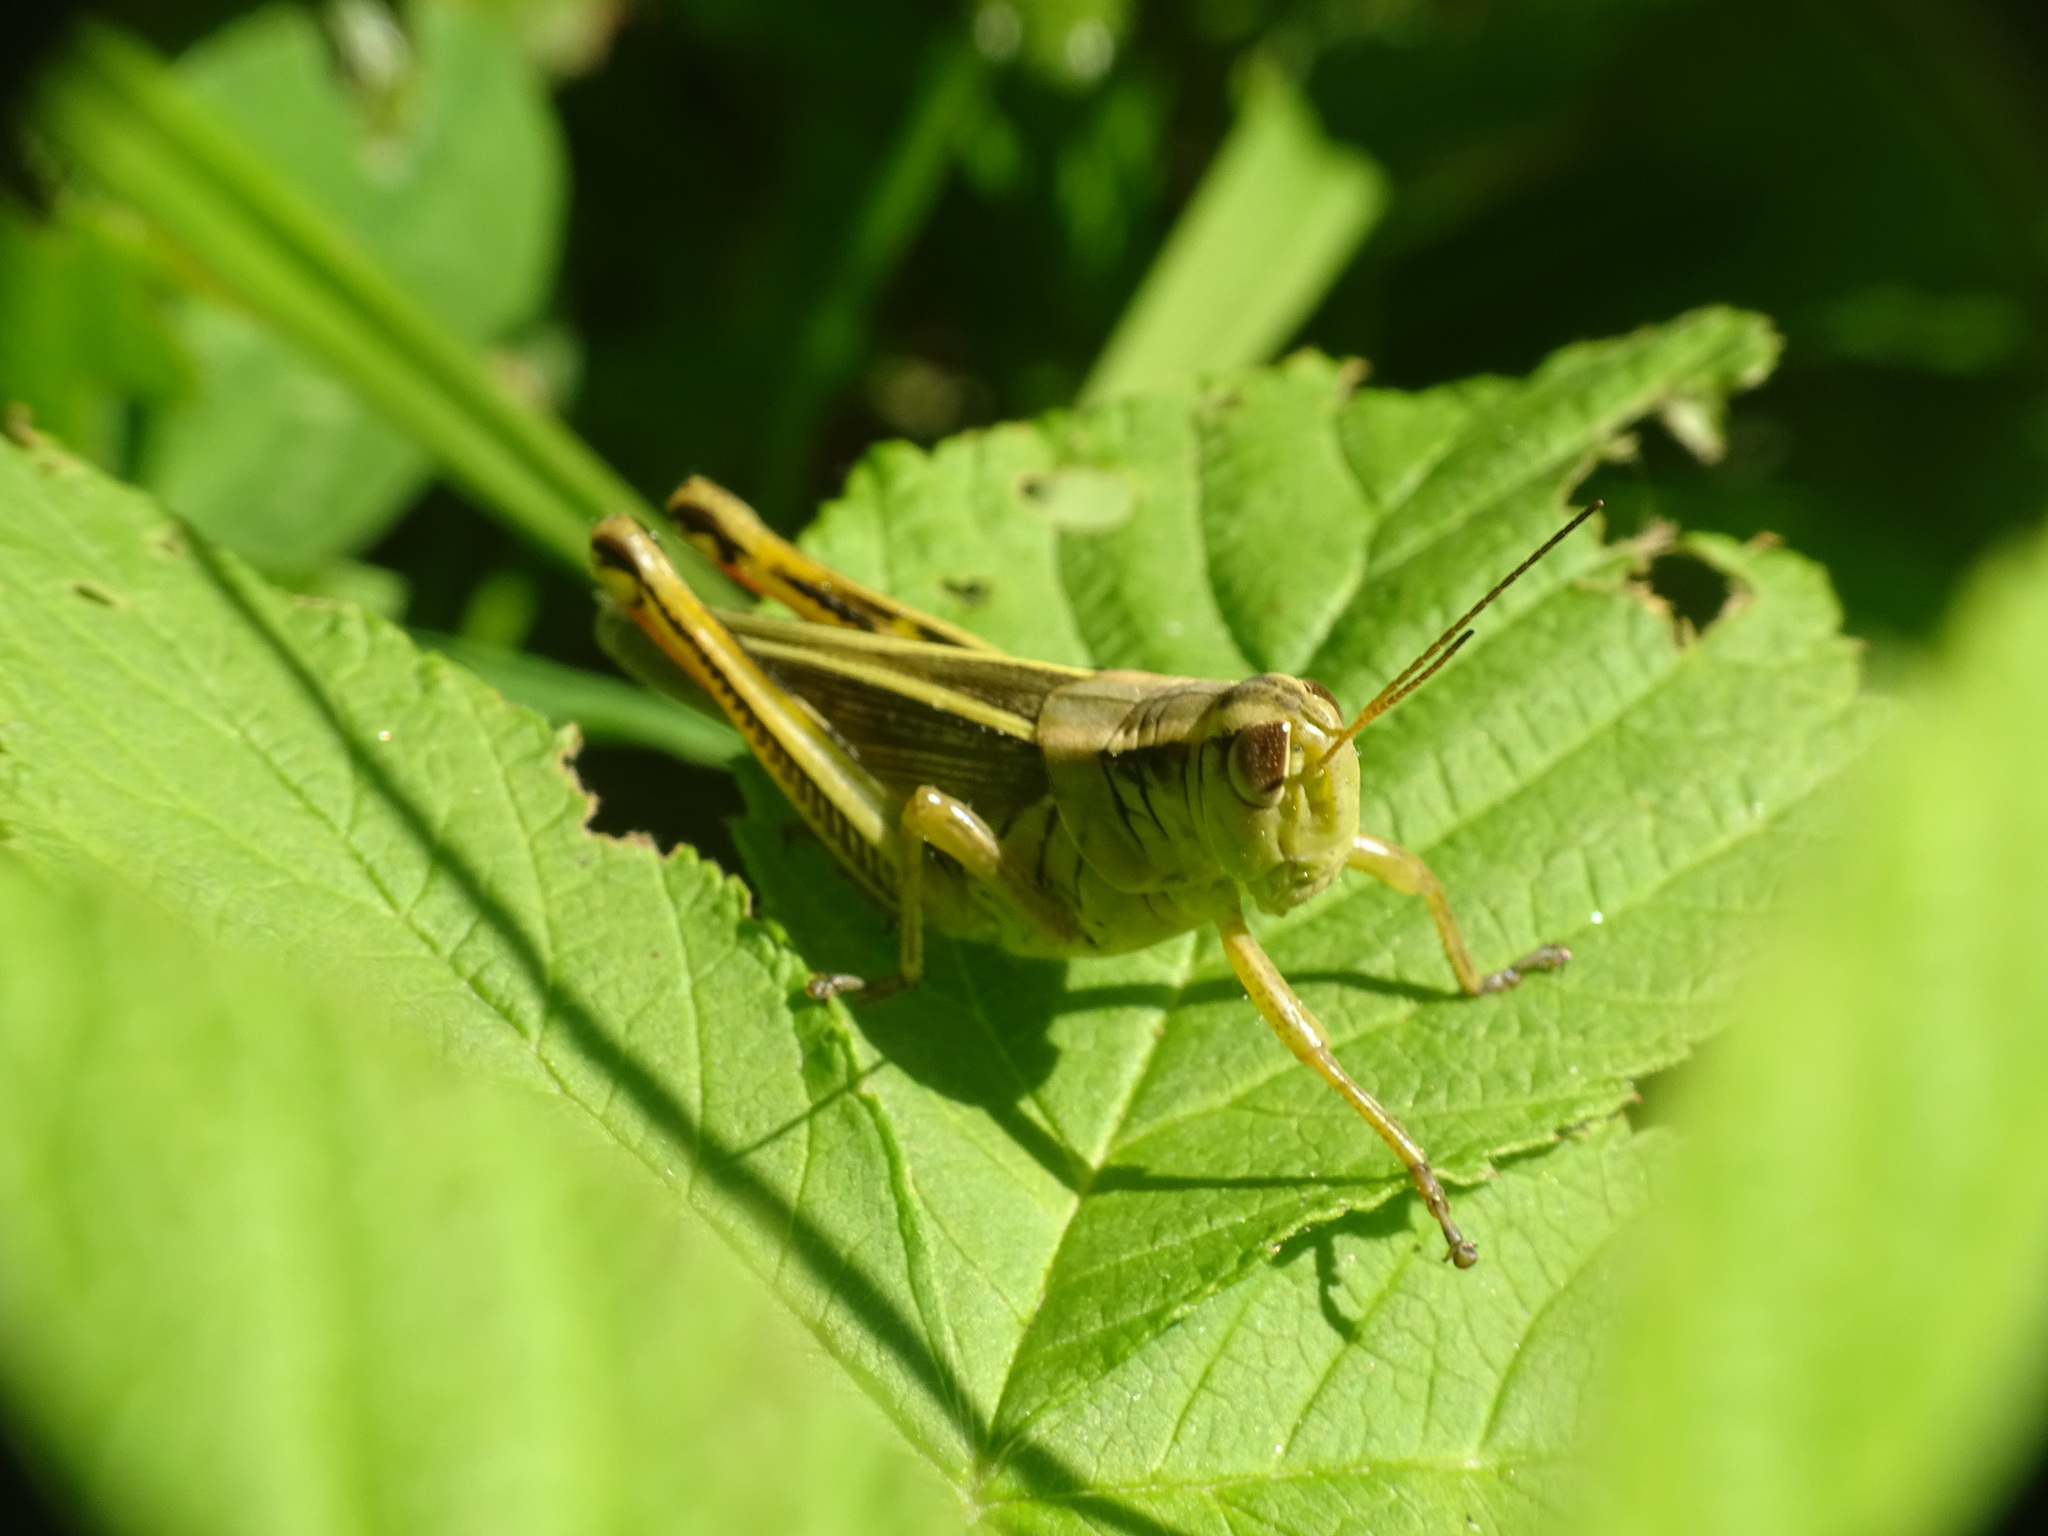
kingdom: Animalia
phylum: Arthropoda
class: Insecta
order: Orthoptera
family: Acrididae
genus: Melanoplus
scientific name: Melanoplus bivittatus
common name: Two-striped grasshopper
